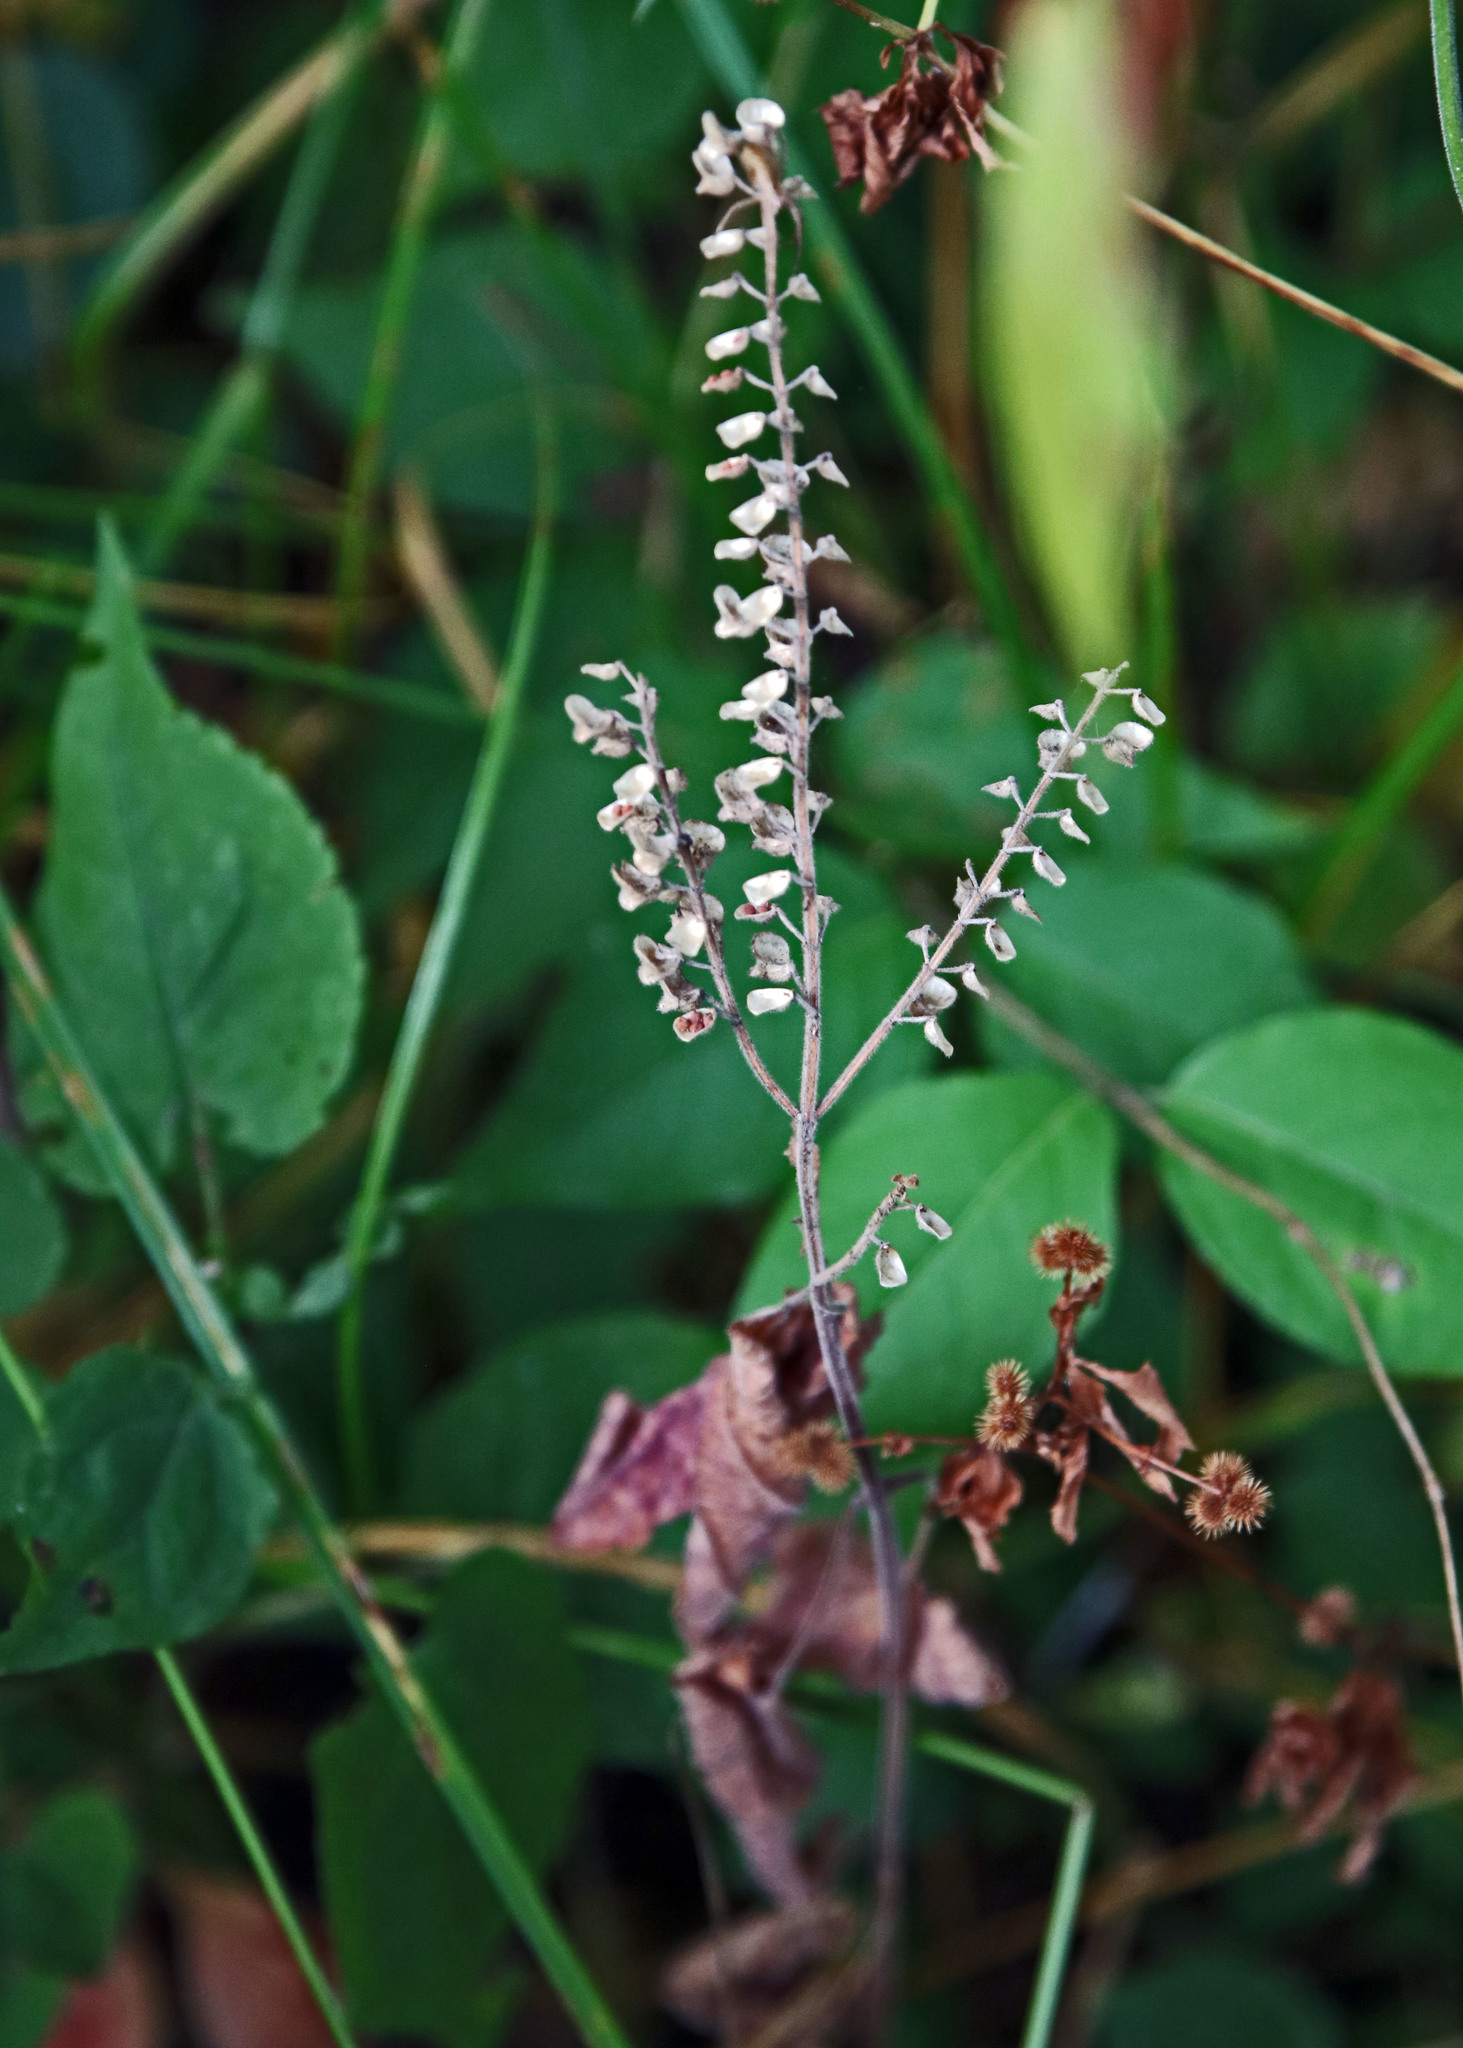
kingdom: Plantae
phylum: Tracheophyta
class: Magnoliopsida
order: Lamiales
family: Lamiaceae
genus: Scutellaria
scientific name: Scutellaria ovata
